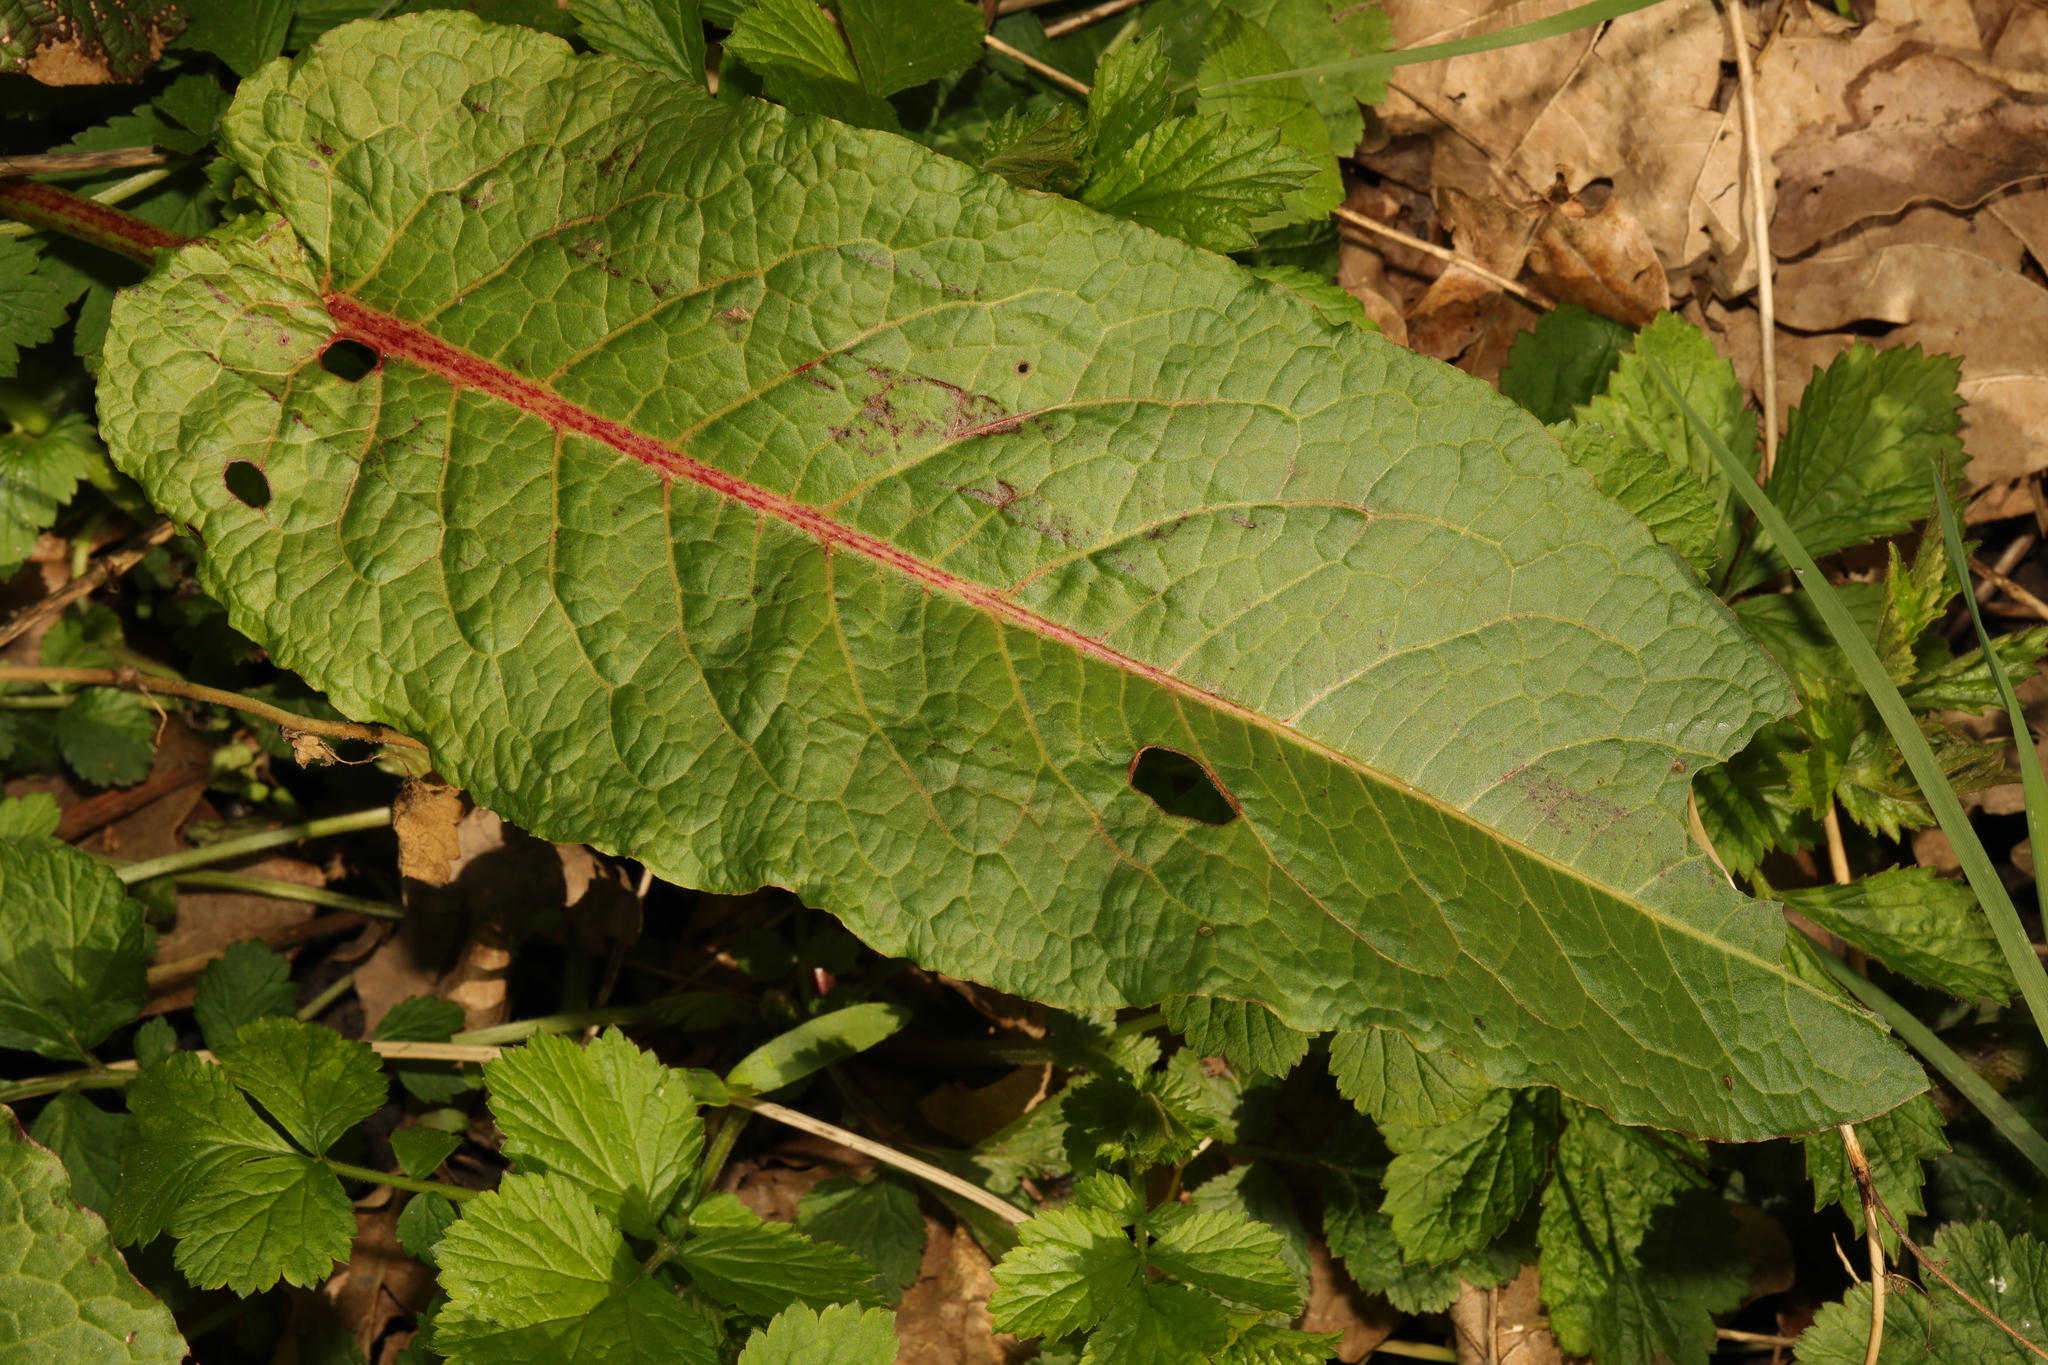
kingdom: Plantae
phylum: Tracheophyta
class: Magnoliopsida
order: Caryophyllales
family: Polygonaceae
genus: Rumex
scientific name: Rumex obtusifolius
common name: Bitter dock
